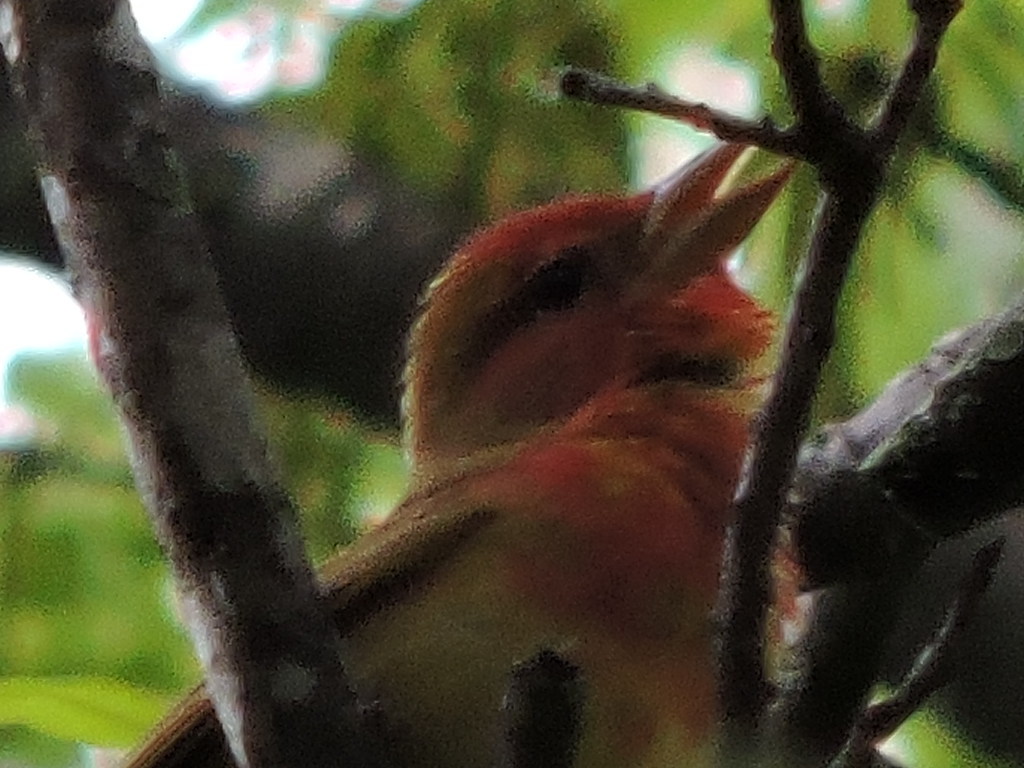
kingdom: Animalia
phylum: Chordata
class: Aves
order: Passeriformes
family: Cardinalidae
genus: Piranga
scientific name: Piranga rubra
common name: Summer tanager
